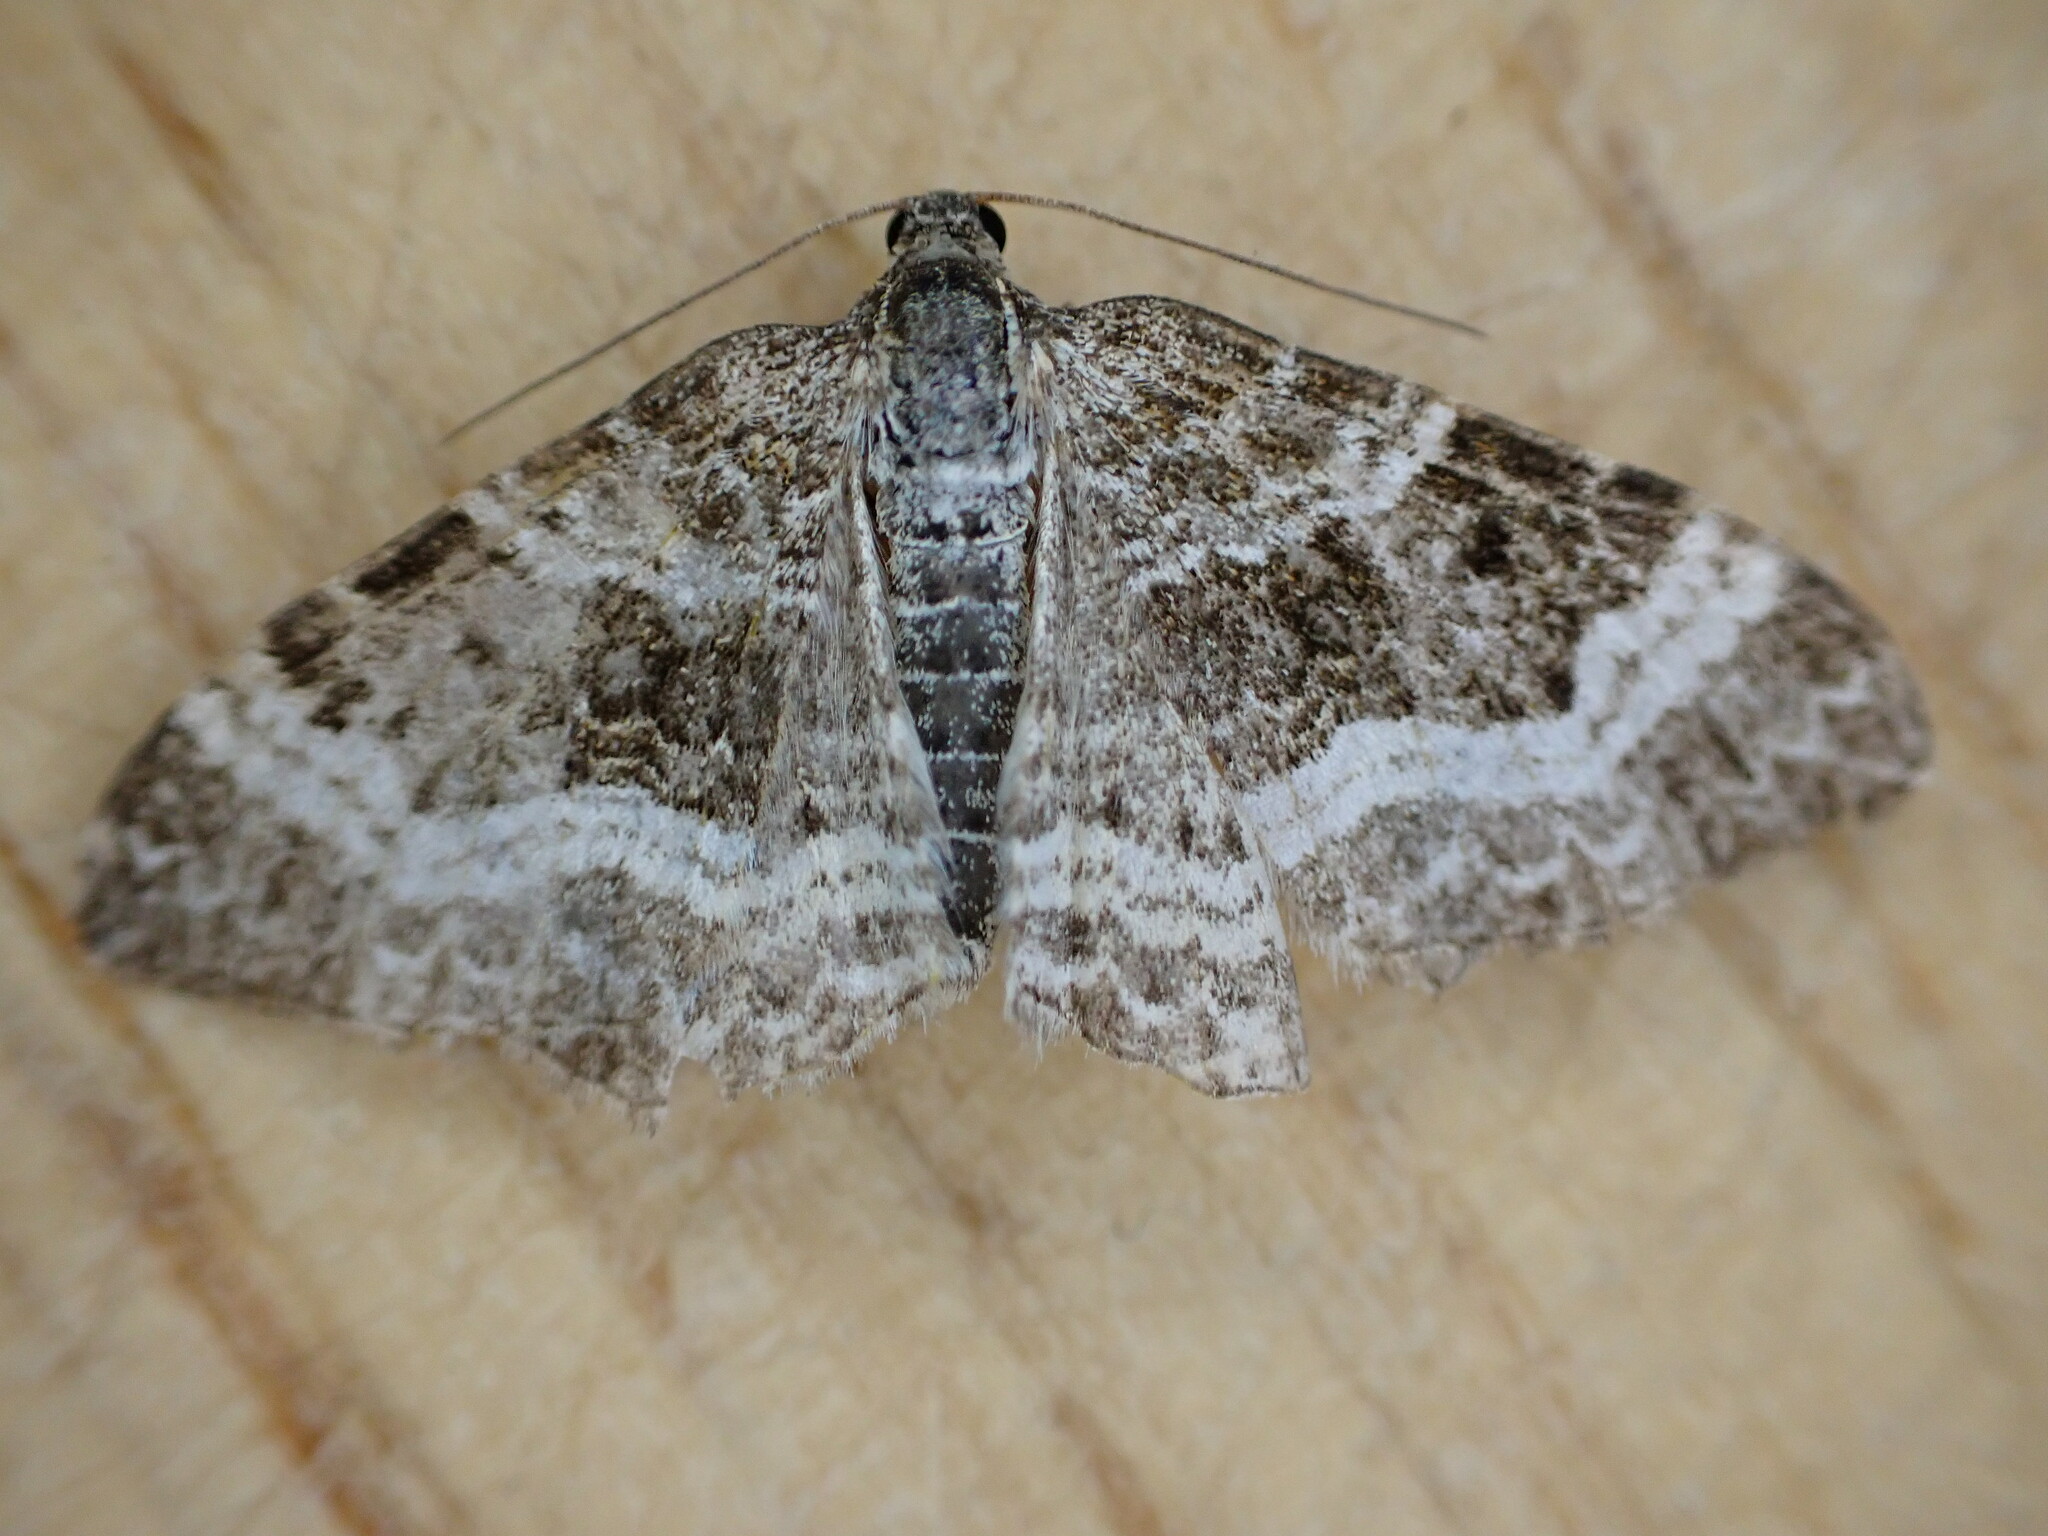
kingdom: Animalia
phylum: Arthropoda
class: Insecta
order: Lepidoptera
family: Geometridae
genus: Epirrhoe
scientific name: Epirrhoe alternata
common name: Common carpet
